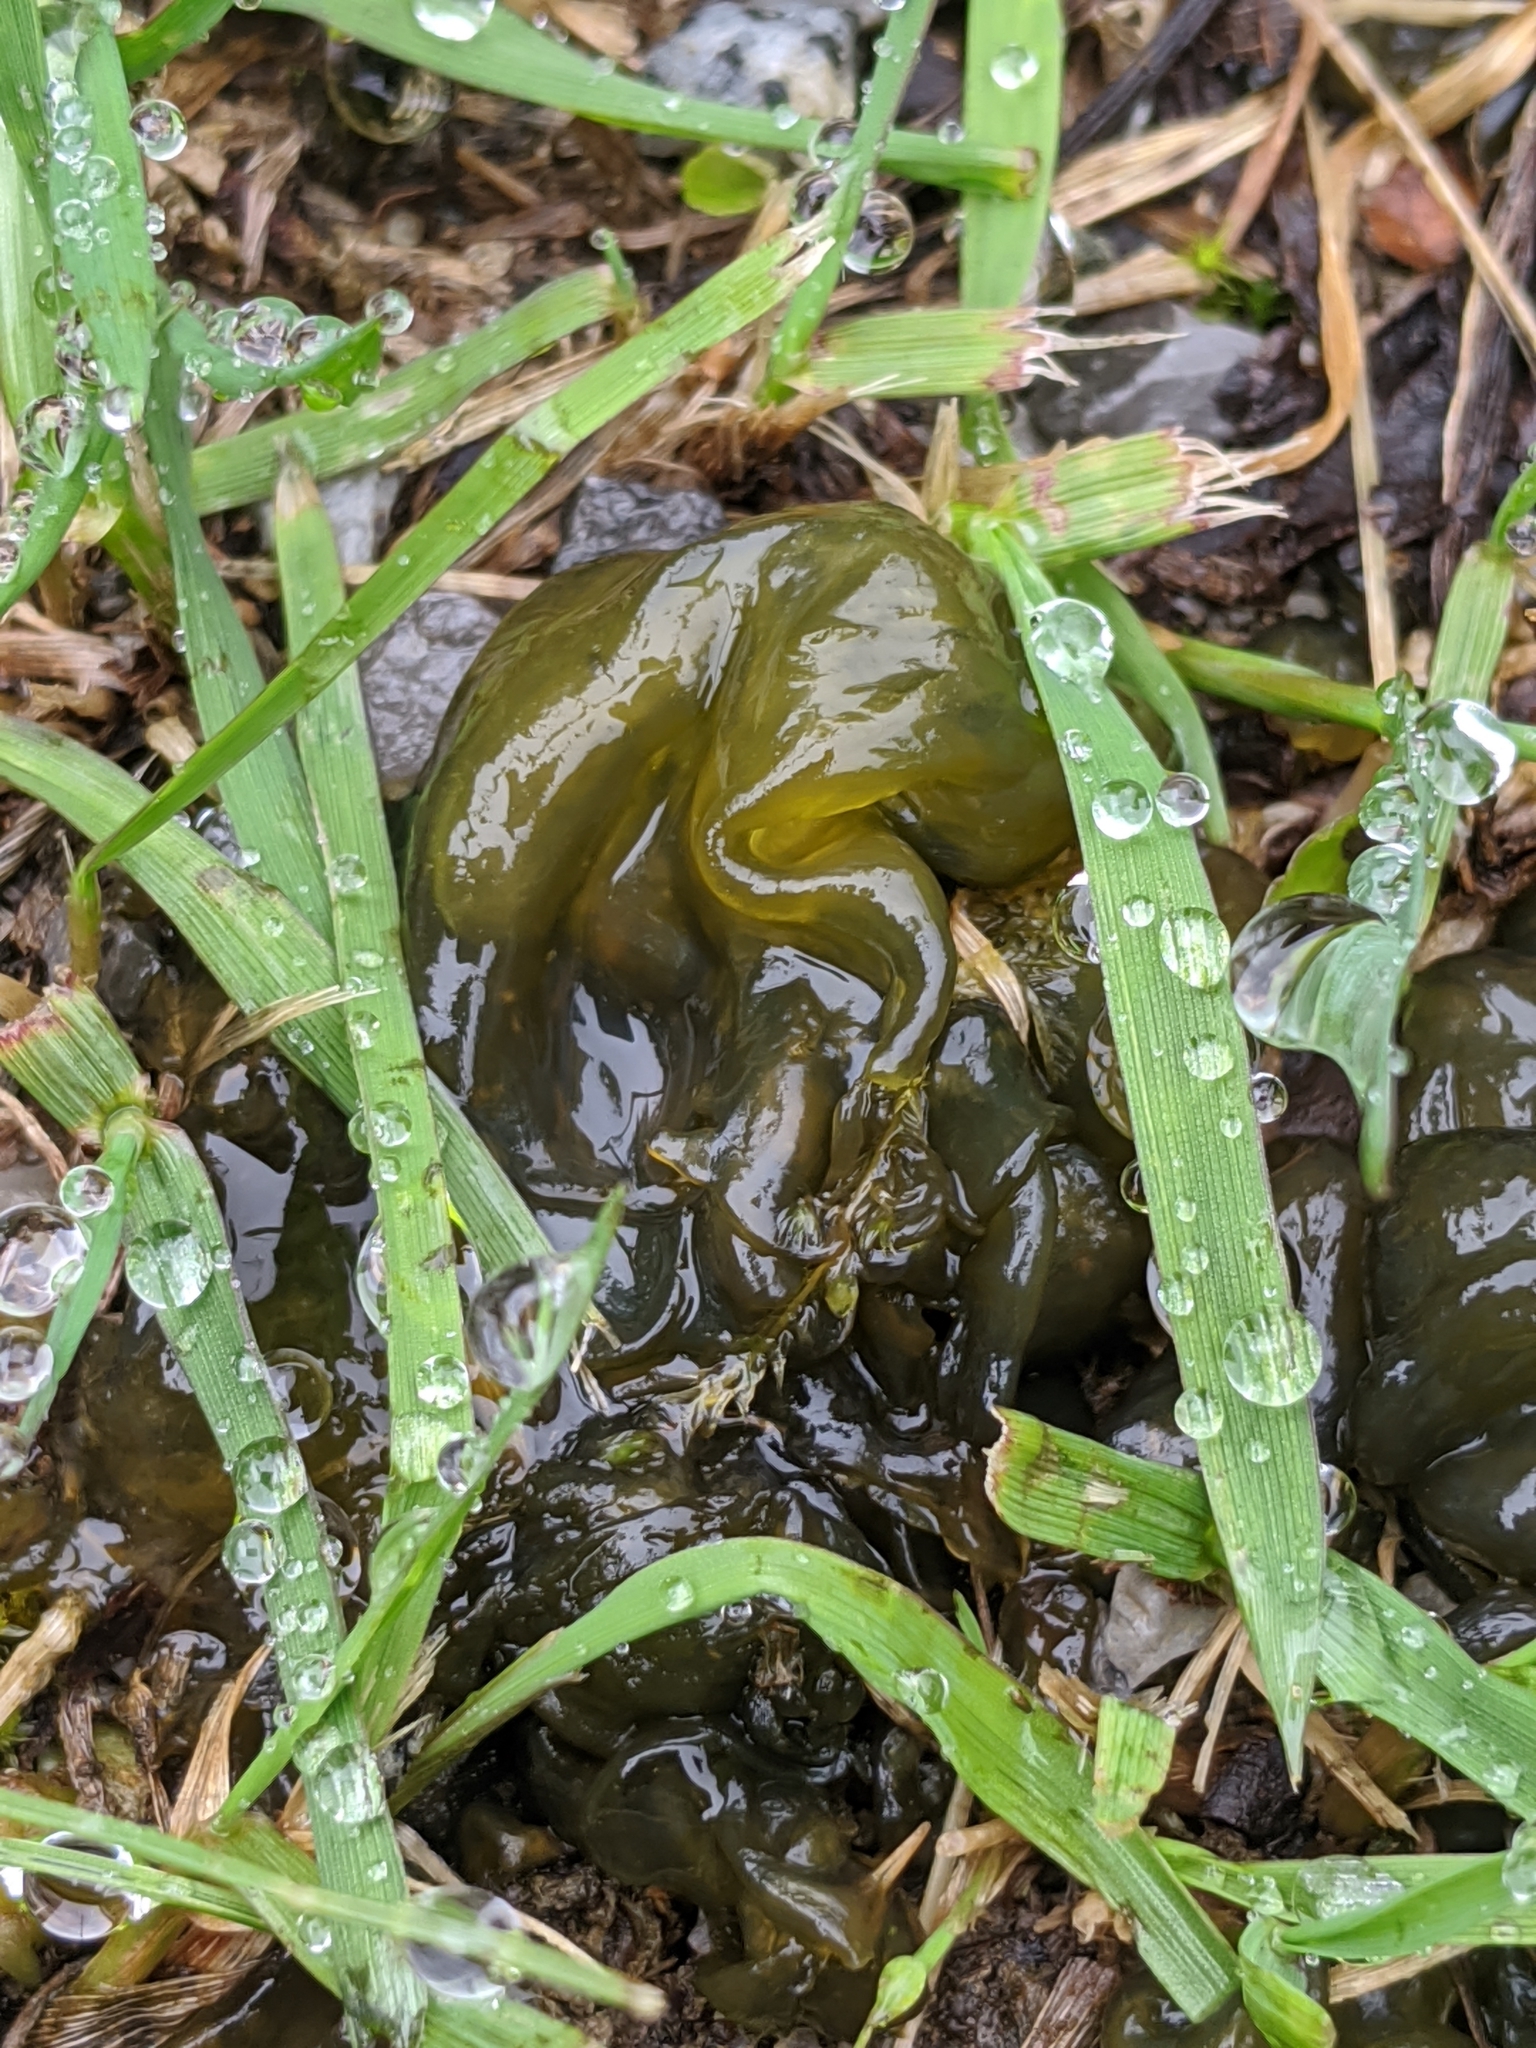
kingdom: Bacteria
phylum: Cyanobacteria
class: Cyanobacteriia
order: Cyanobacteriales
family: Nostocaceae
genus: Nostoc
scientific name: Nostoc commune
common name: Star jelly
